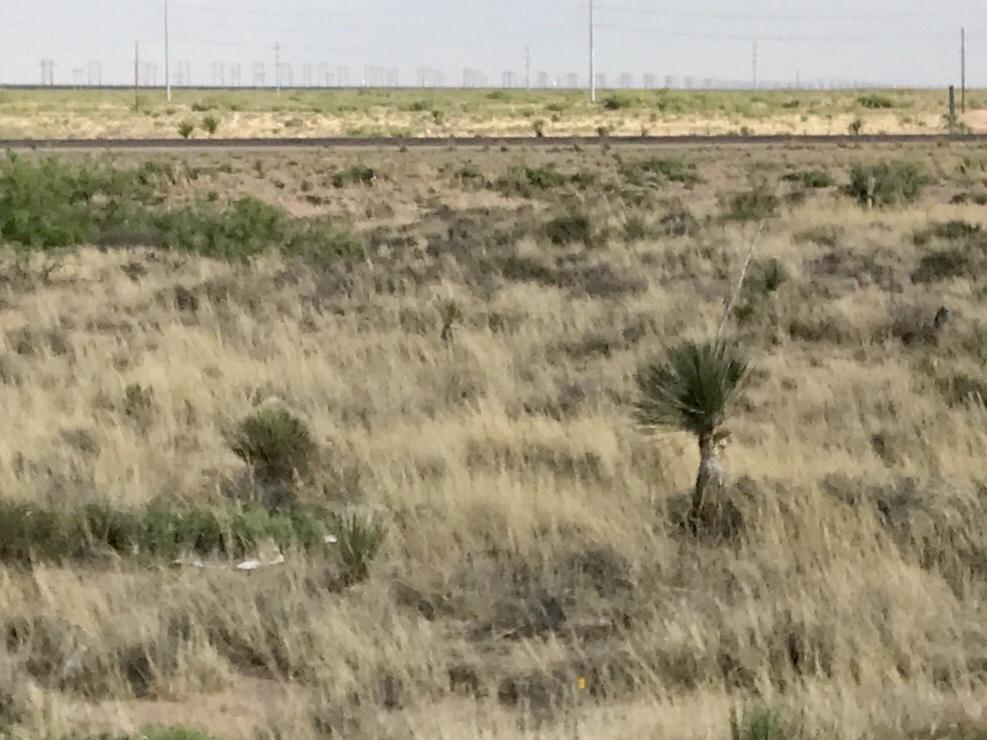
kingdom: Plantae
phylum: Tracheophyta
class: Liliopsida
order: Asparagales
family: Asparagaceae
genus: Yucca
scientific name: Yucca elata
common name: Palmella
